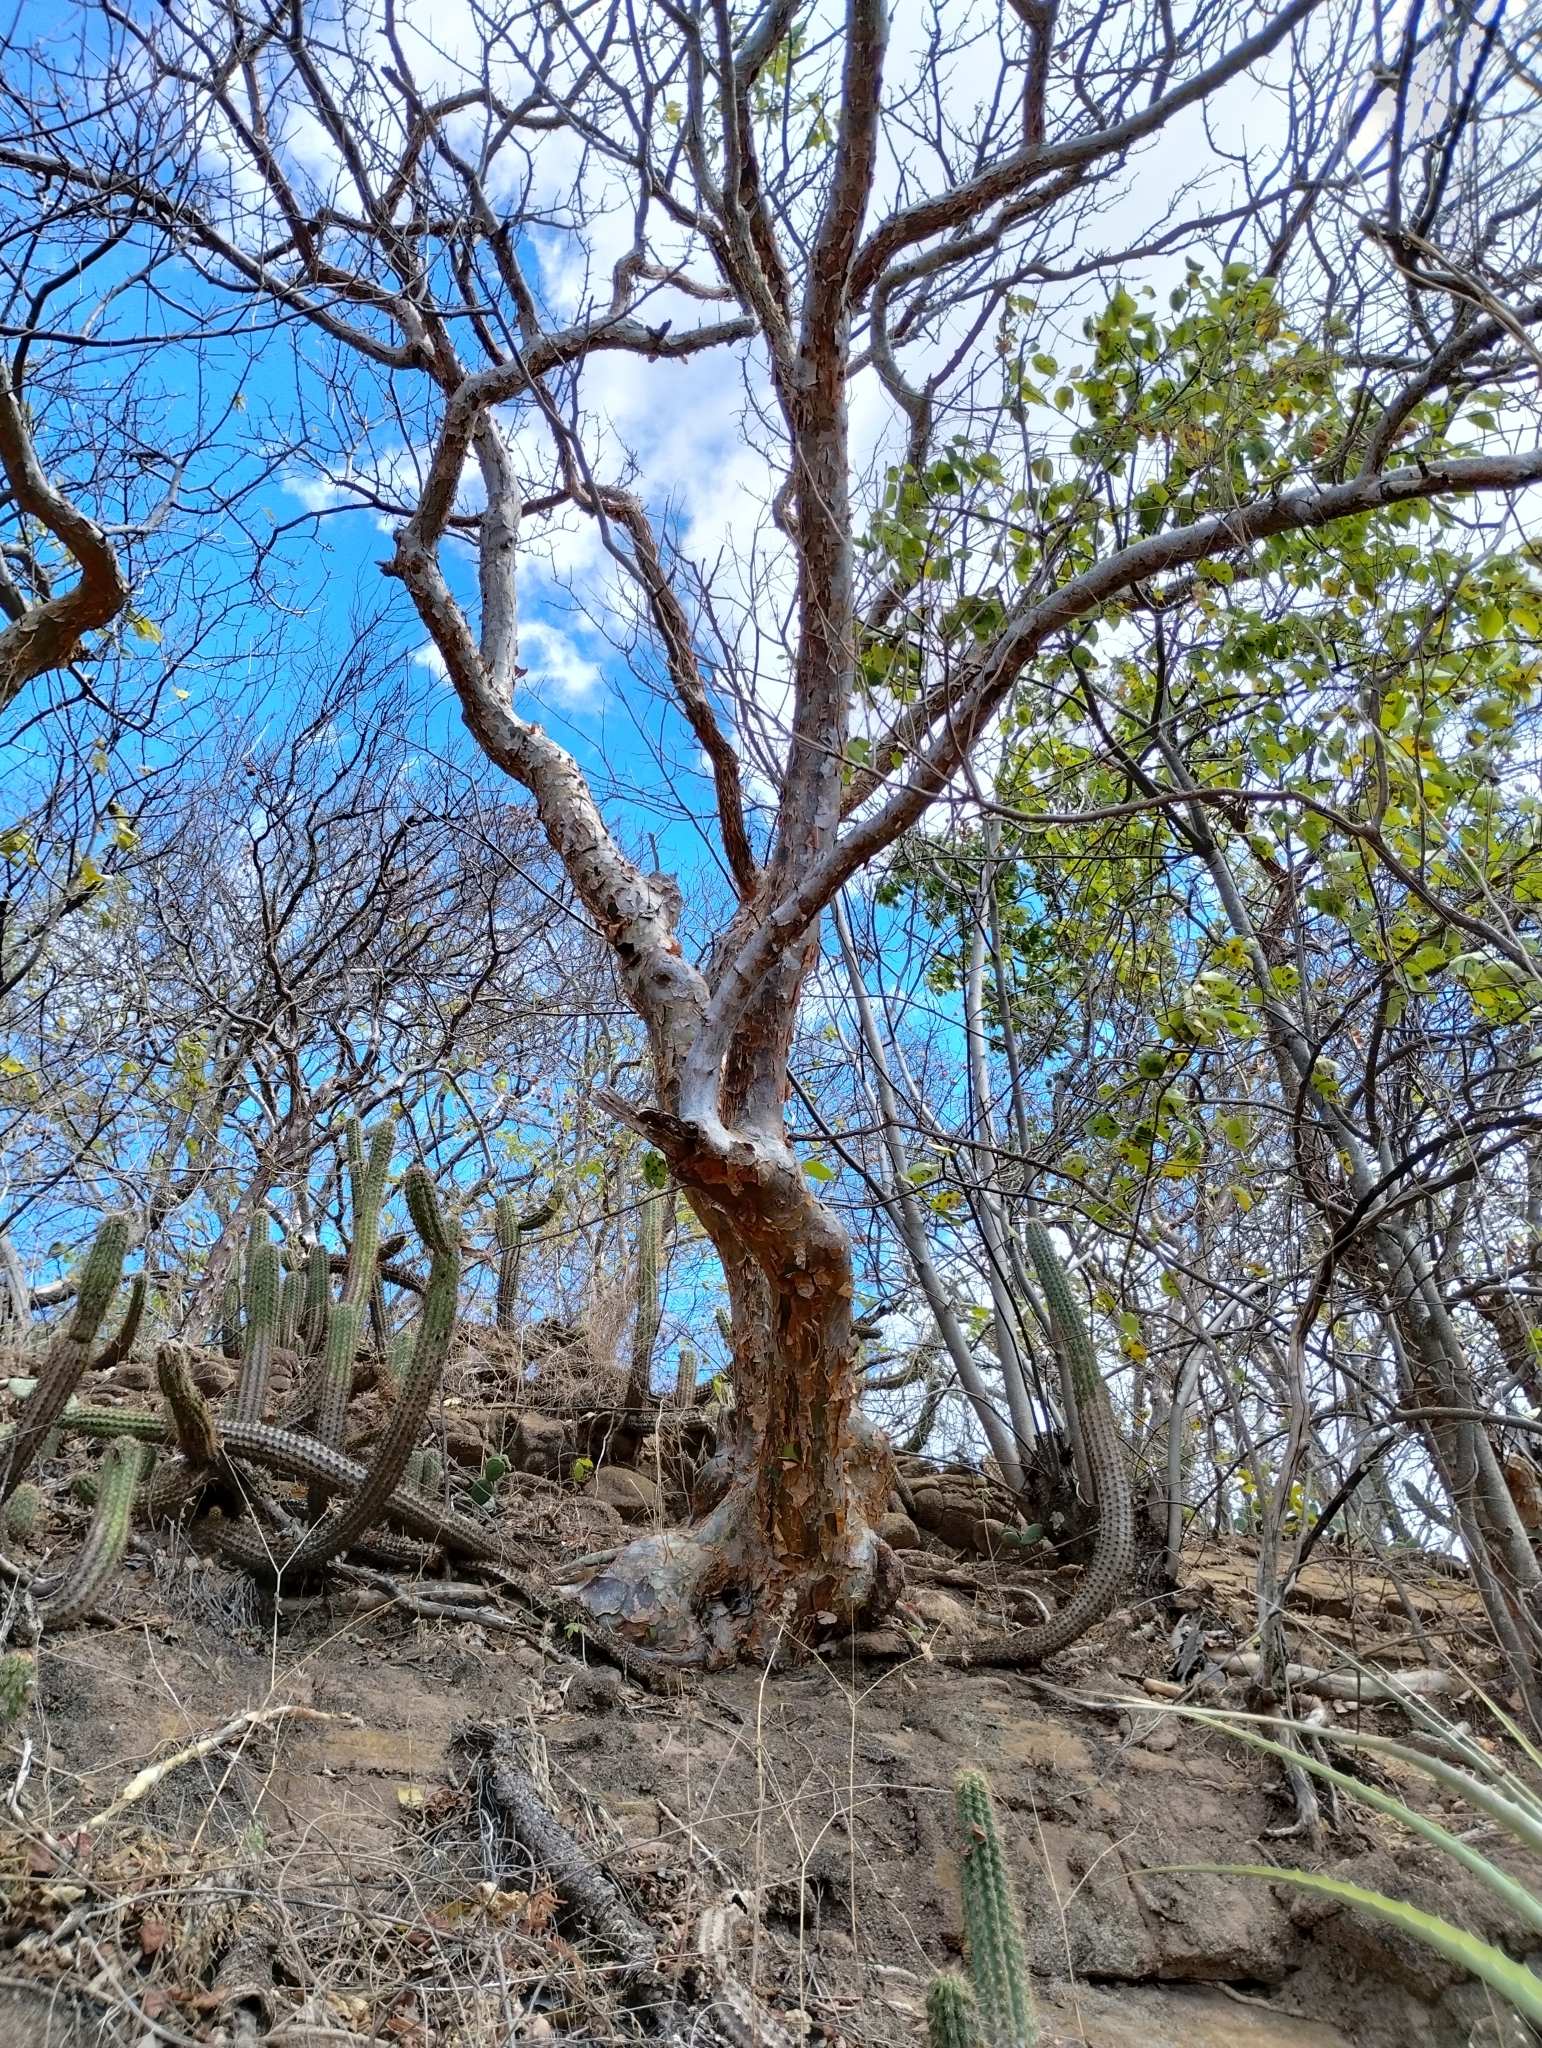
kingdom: Plantae
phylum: Tracheophyta
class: Magnoliopsida
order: Sapindales
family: Burseraceae
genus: Bursera
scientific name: Bursera leptophloeos
